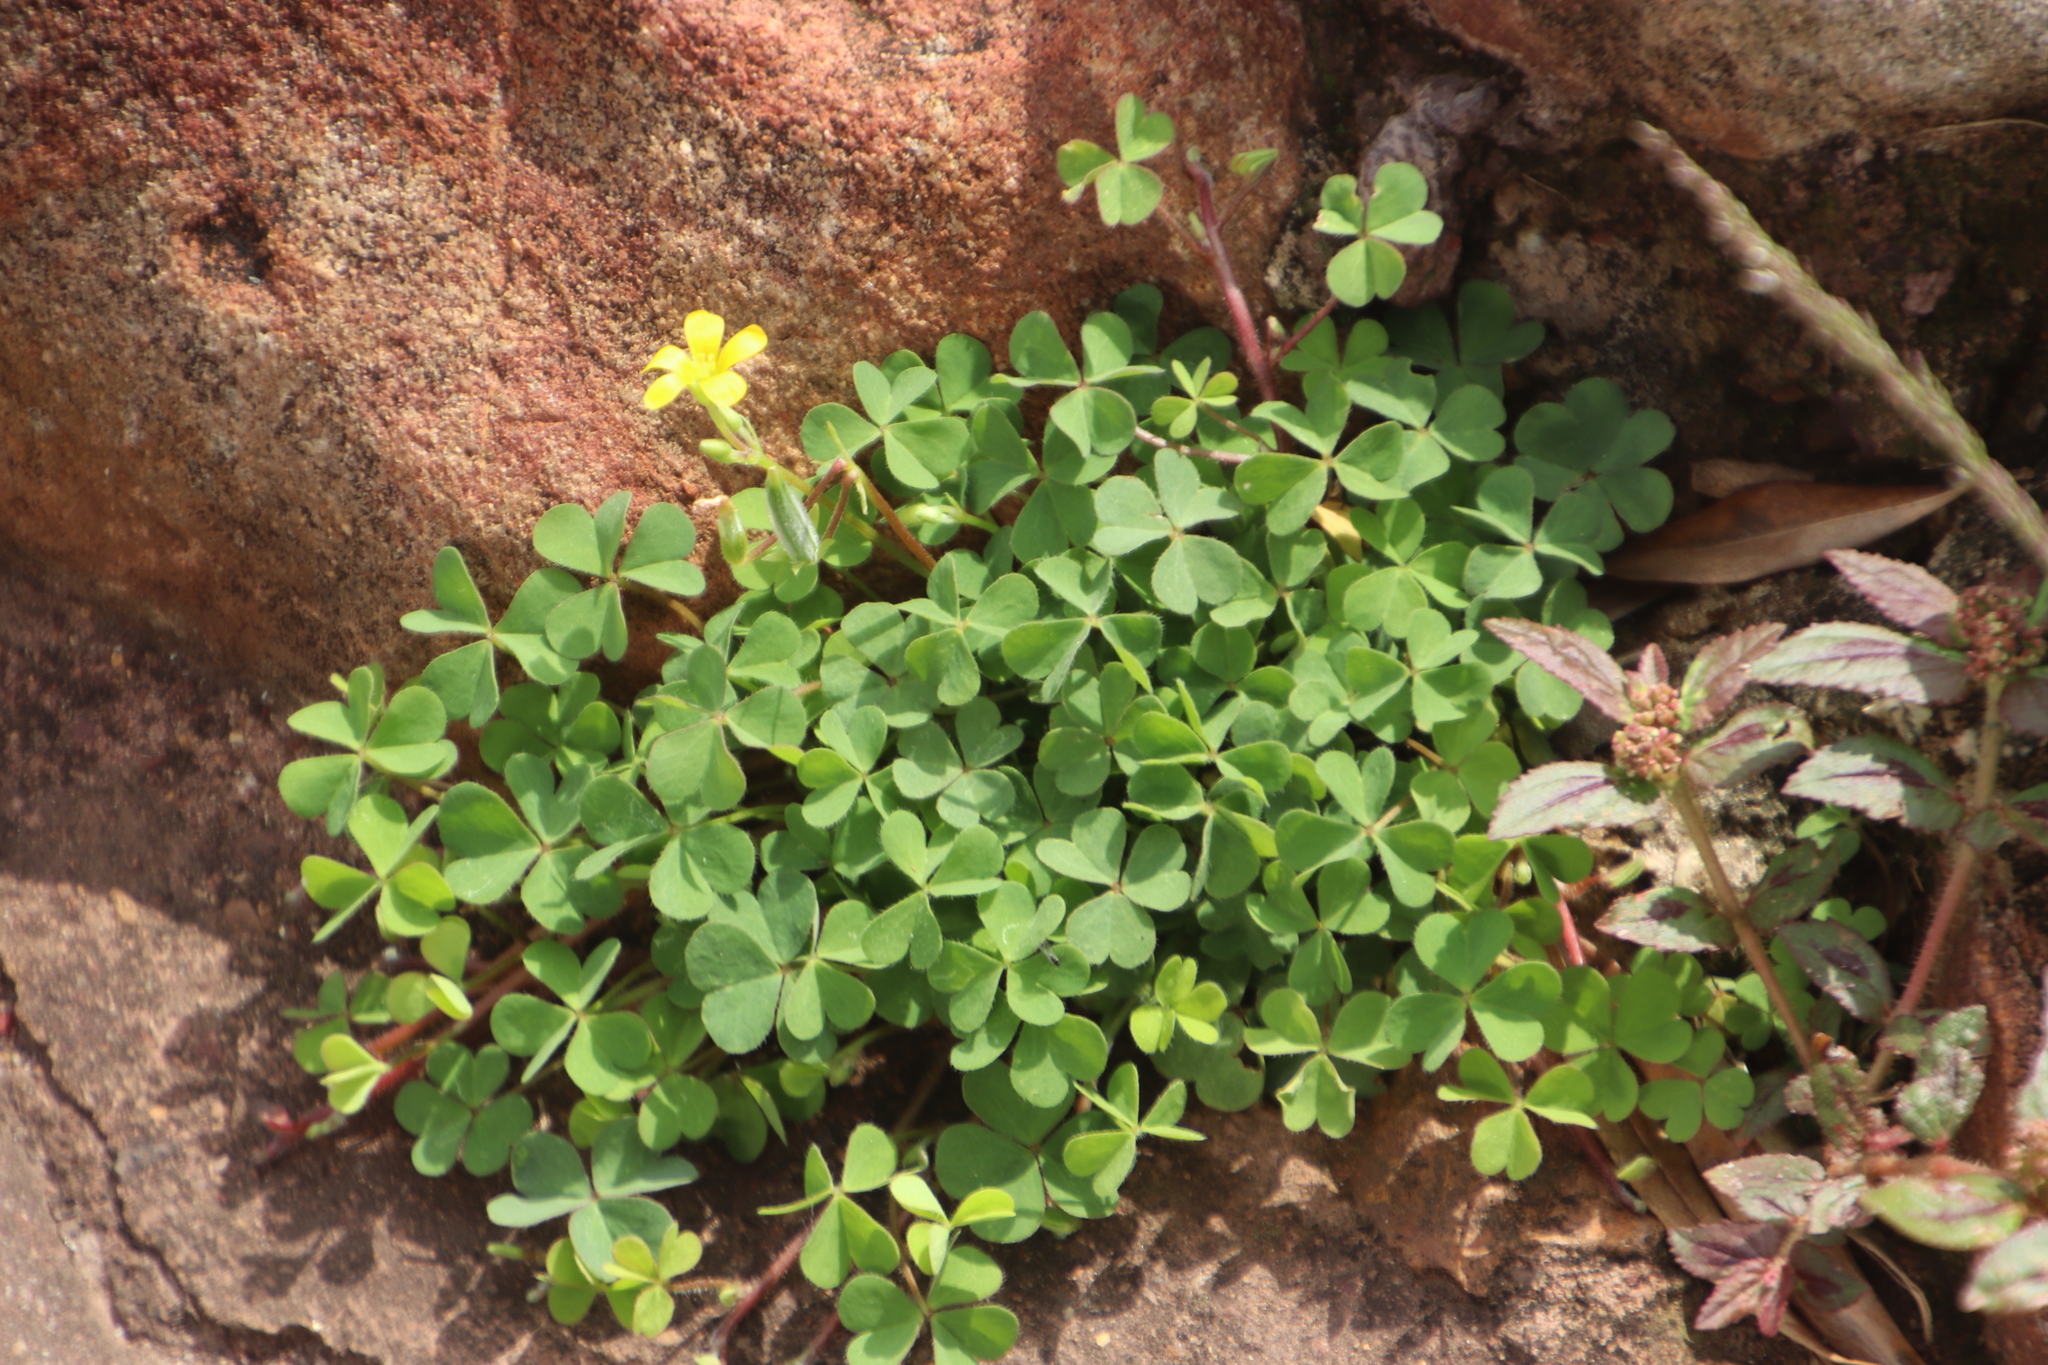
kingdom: Plantae
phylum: Tracheophyta
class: Magnoliopsida
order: Oxalidales
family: Oxalidaceae
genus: Oxalis
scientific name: Oxalis corniculata
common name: Procumbent yellow-sorrel
